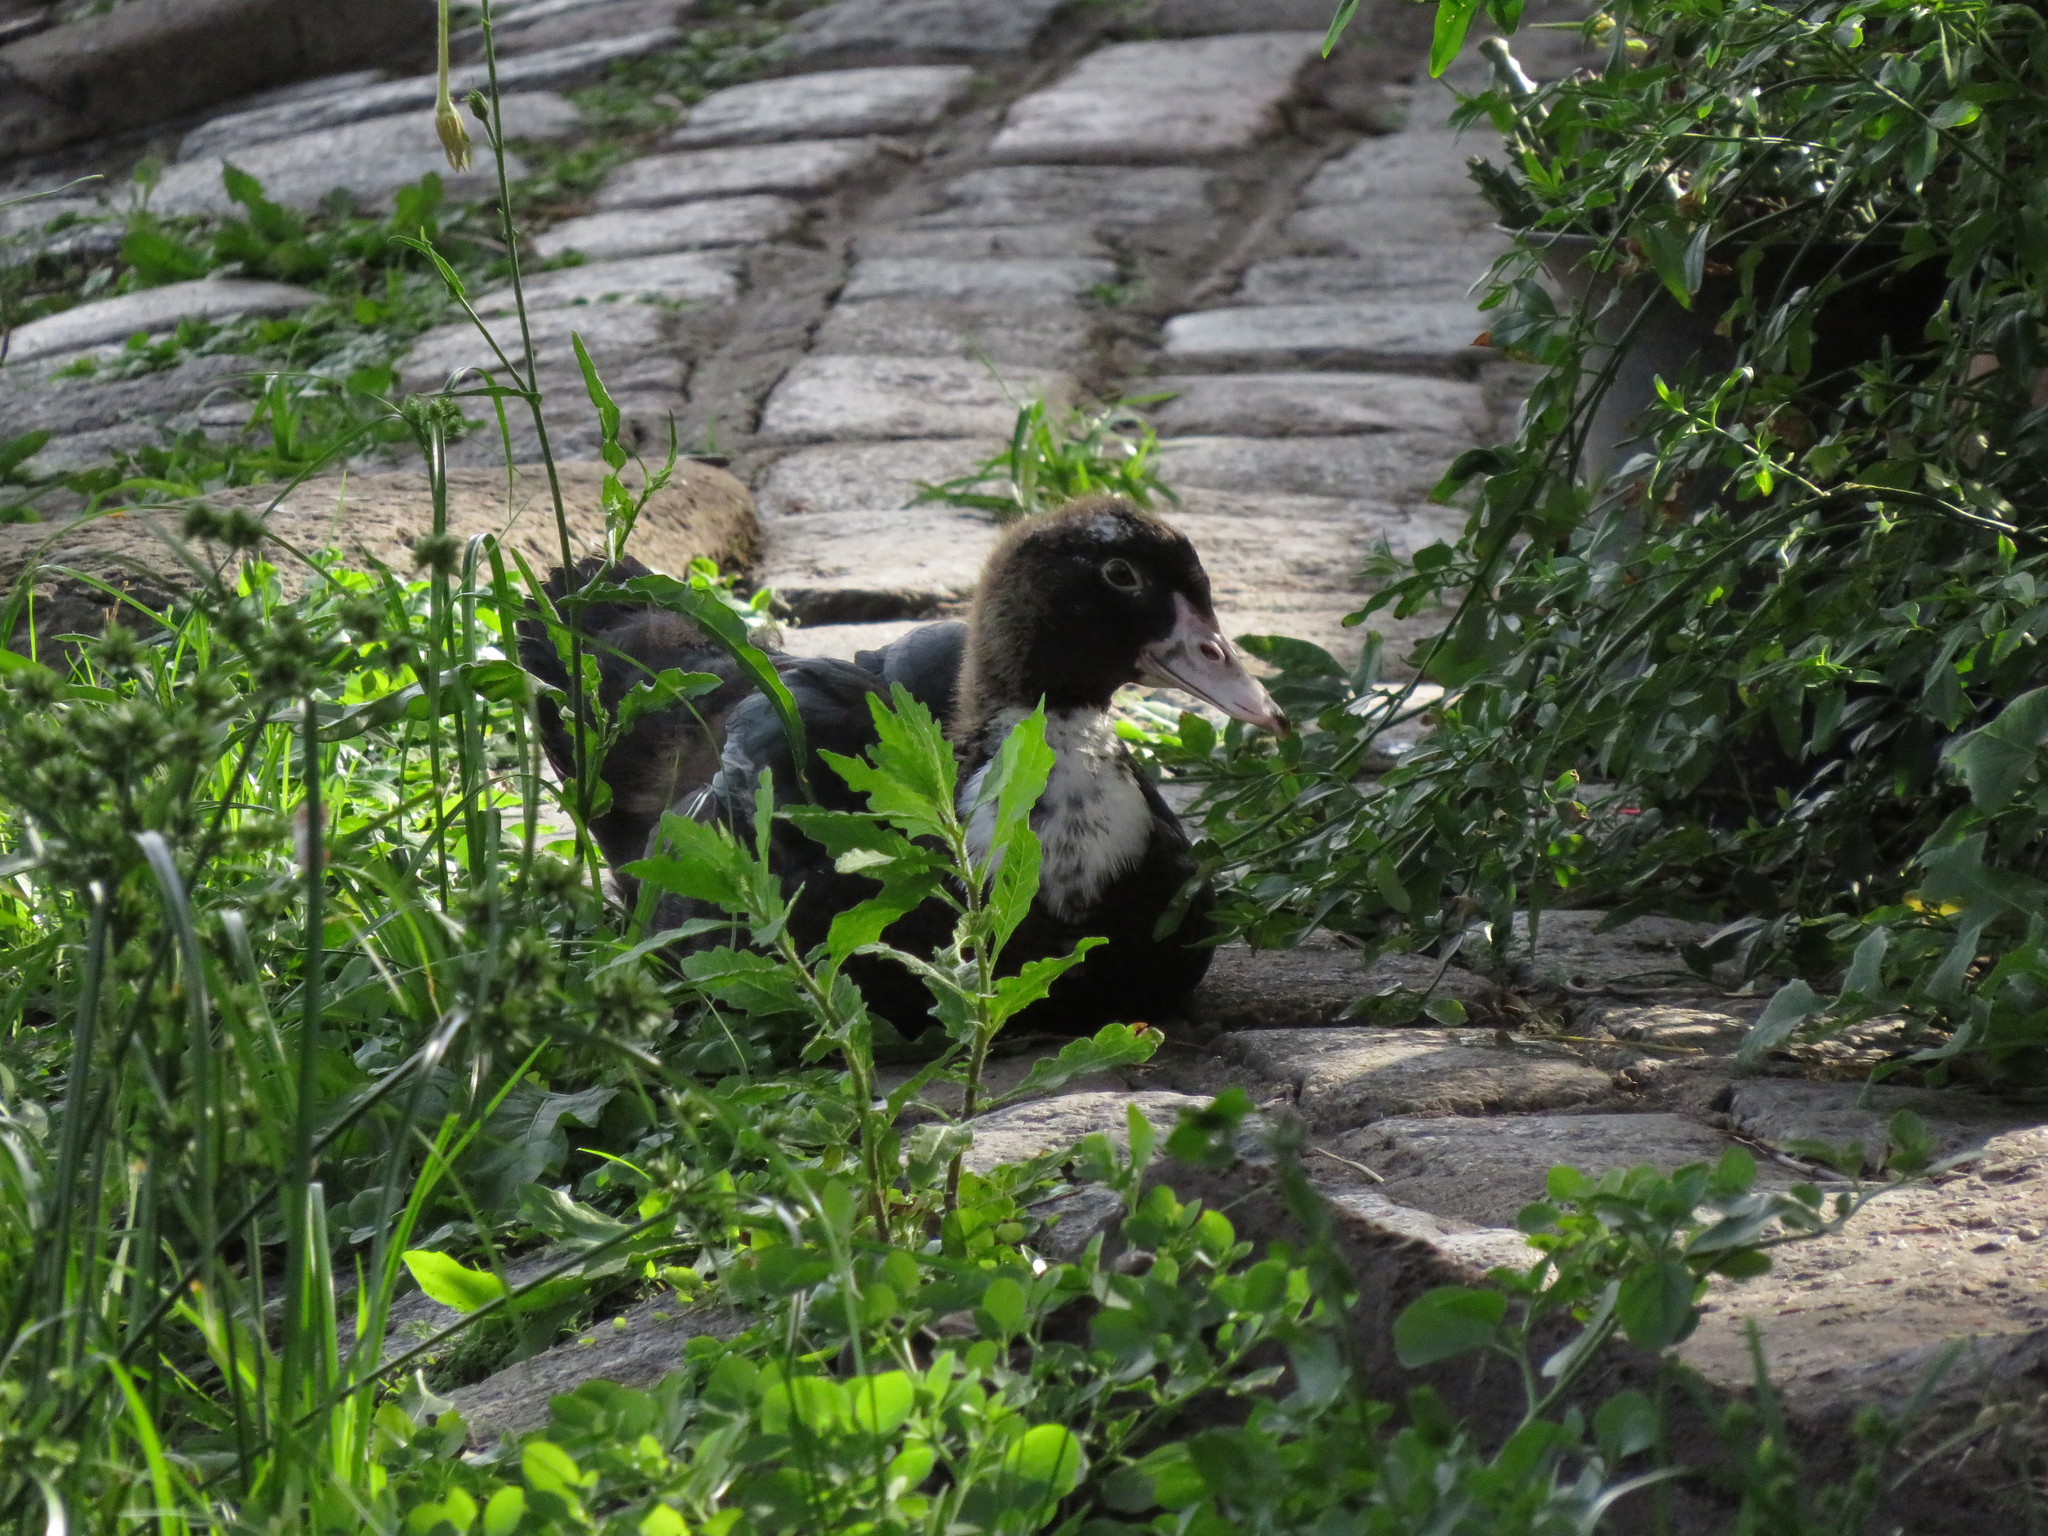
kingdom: Animalia
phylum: Chordata
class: Aves
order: Anseriformes
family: Anatidae
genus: Cairina
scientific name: Cairina moschata
